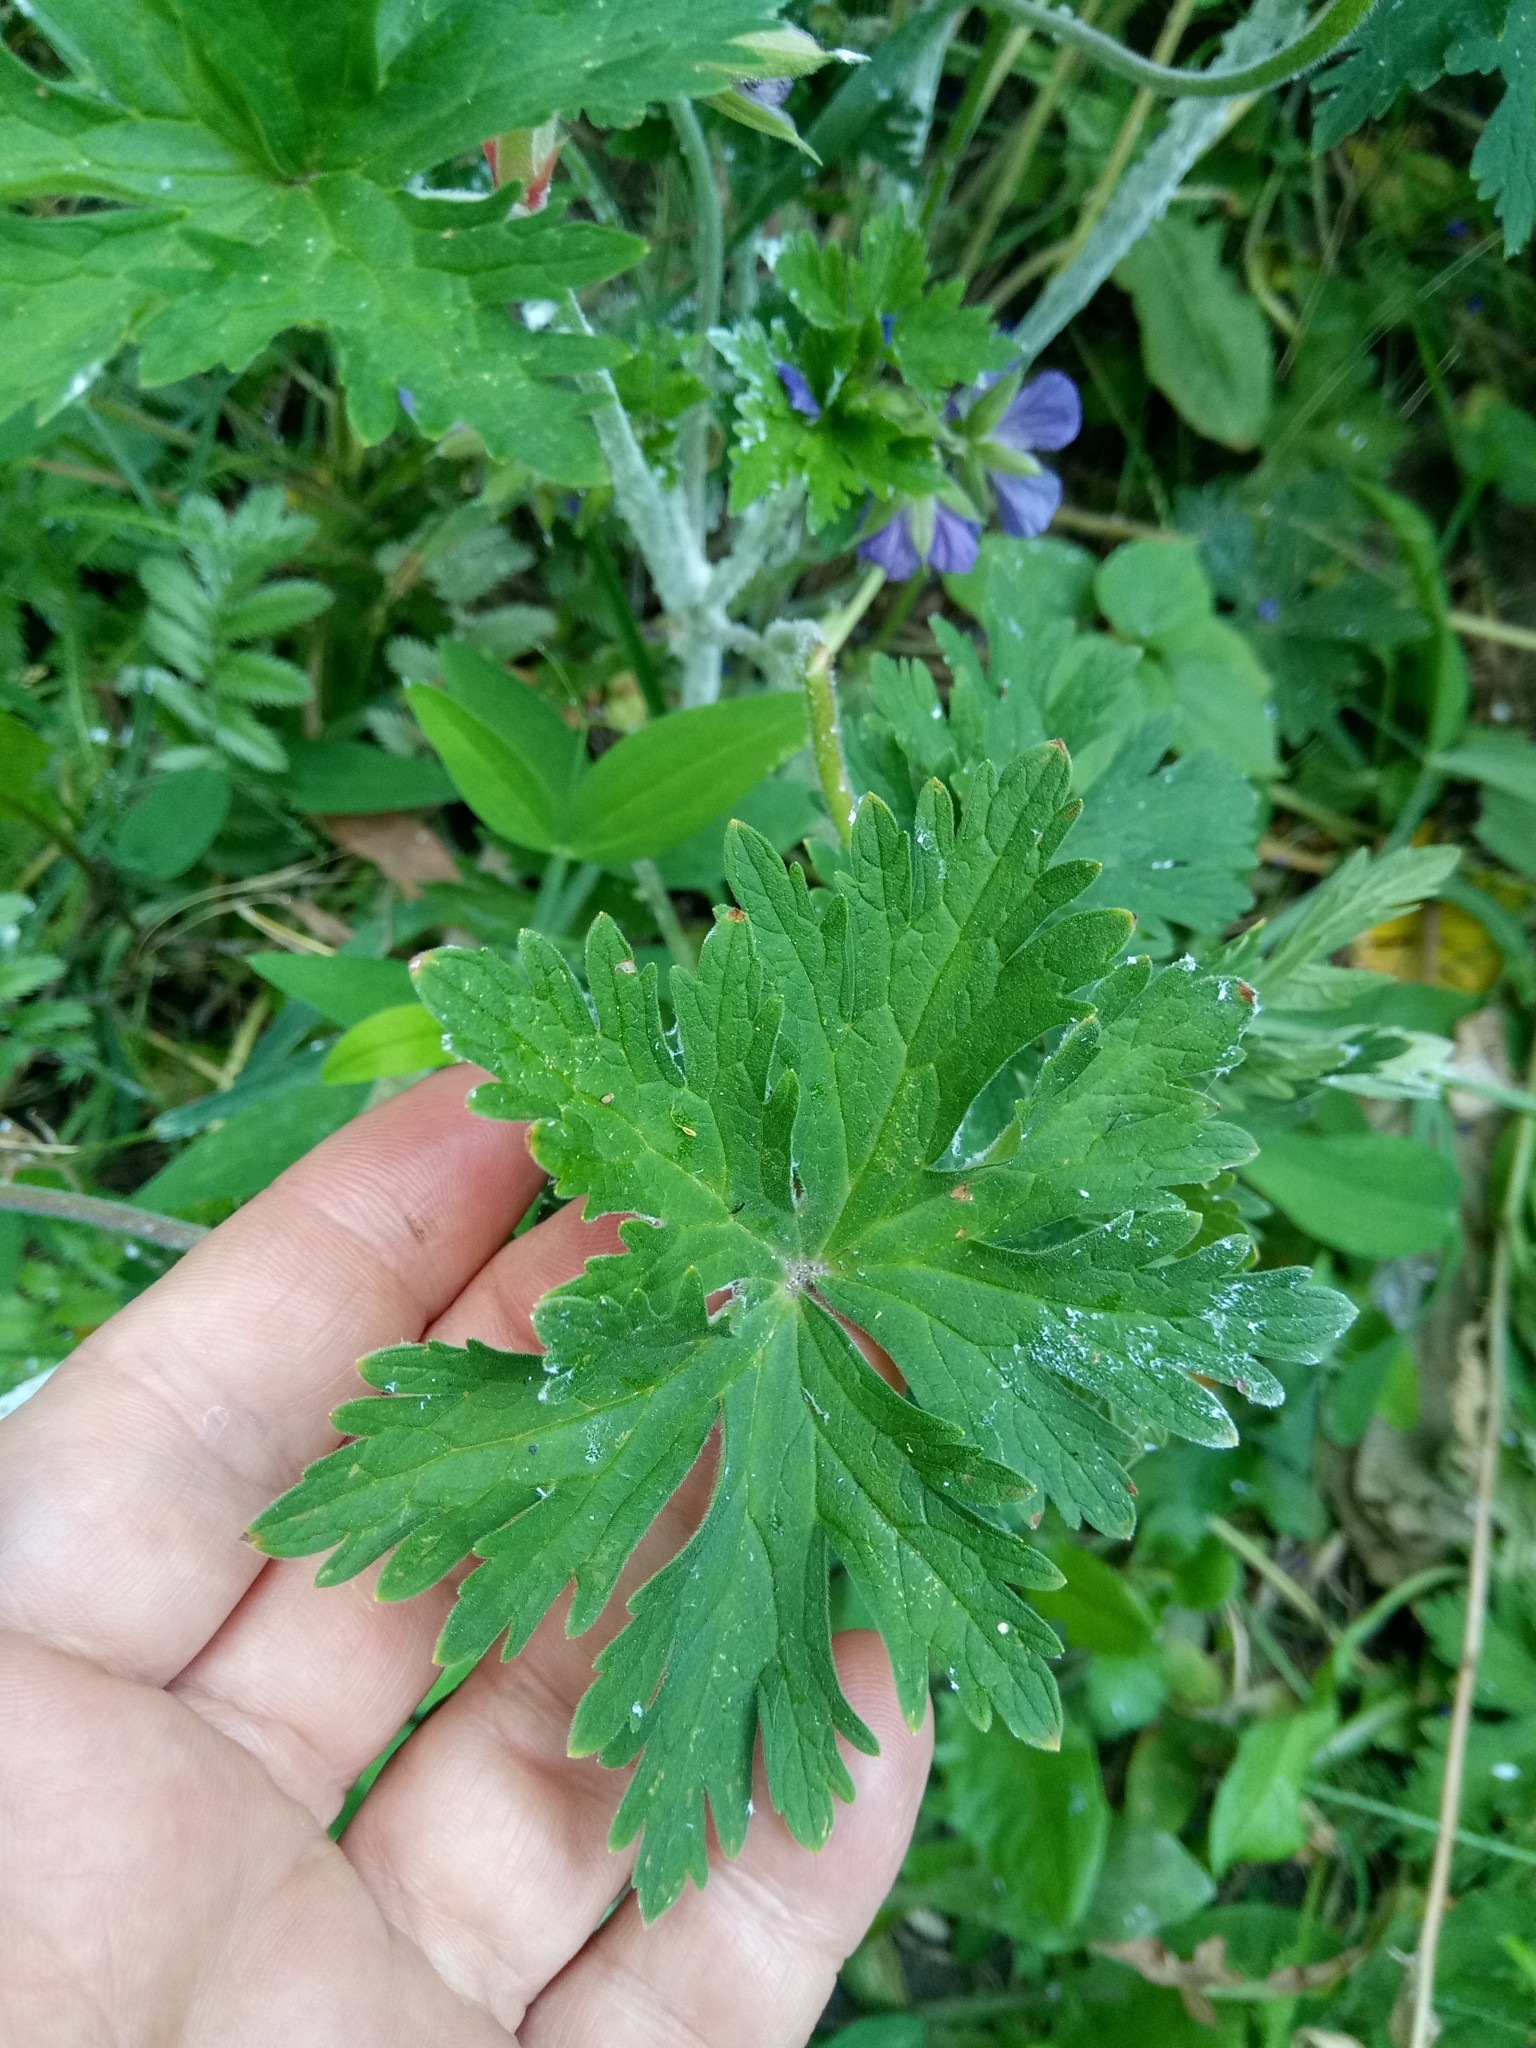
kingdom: Plantae
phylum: Tracheophyta
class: Magnoliopsida
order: Geraniales
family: Geraniaceae
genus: Geranium
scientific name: Geranium pratense
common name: Meadow crane's-bill
